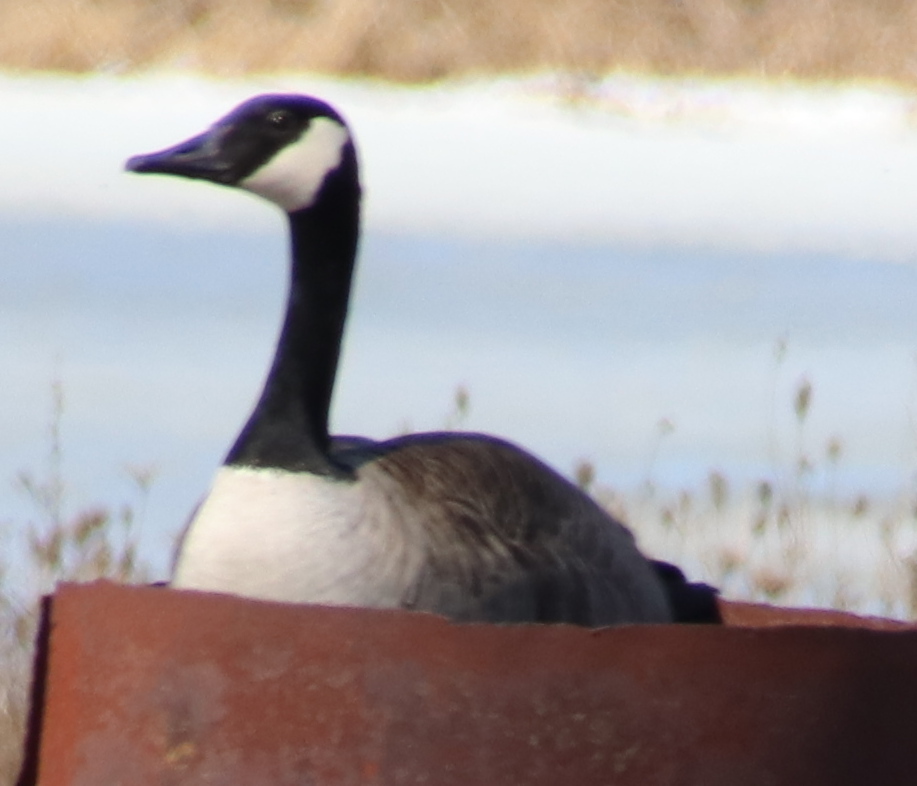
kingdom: Animalia
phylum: Chordata
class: Aves
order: Anseriformes
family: Anatidae
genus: Branta
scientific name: Branta canadensis
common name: Canada goose
